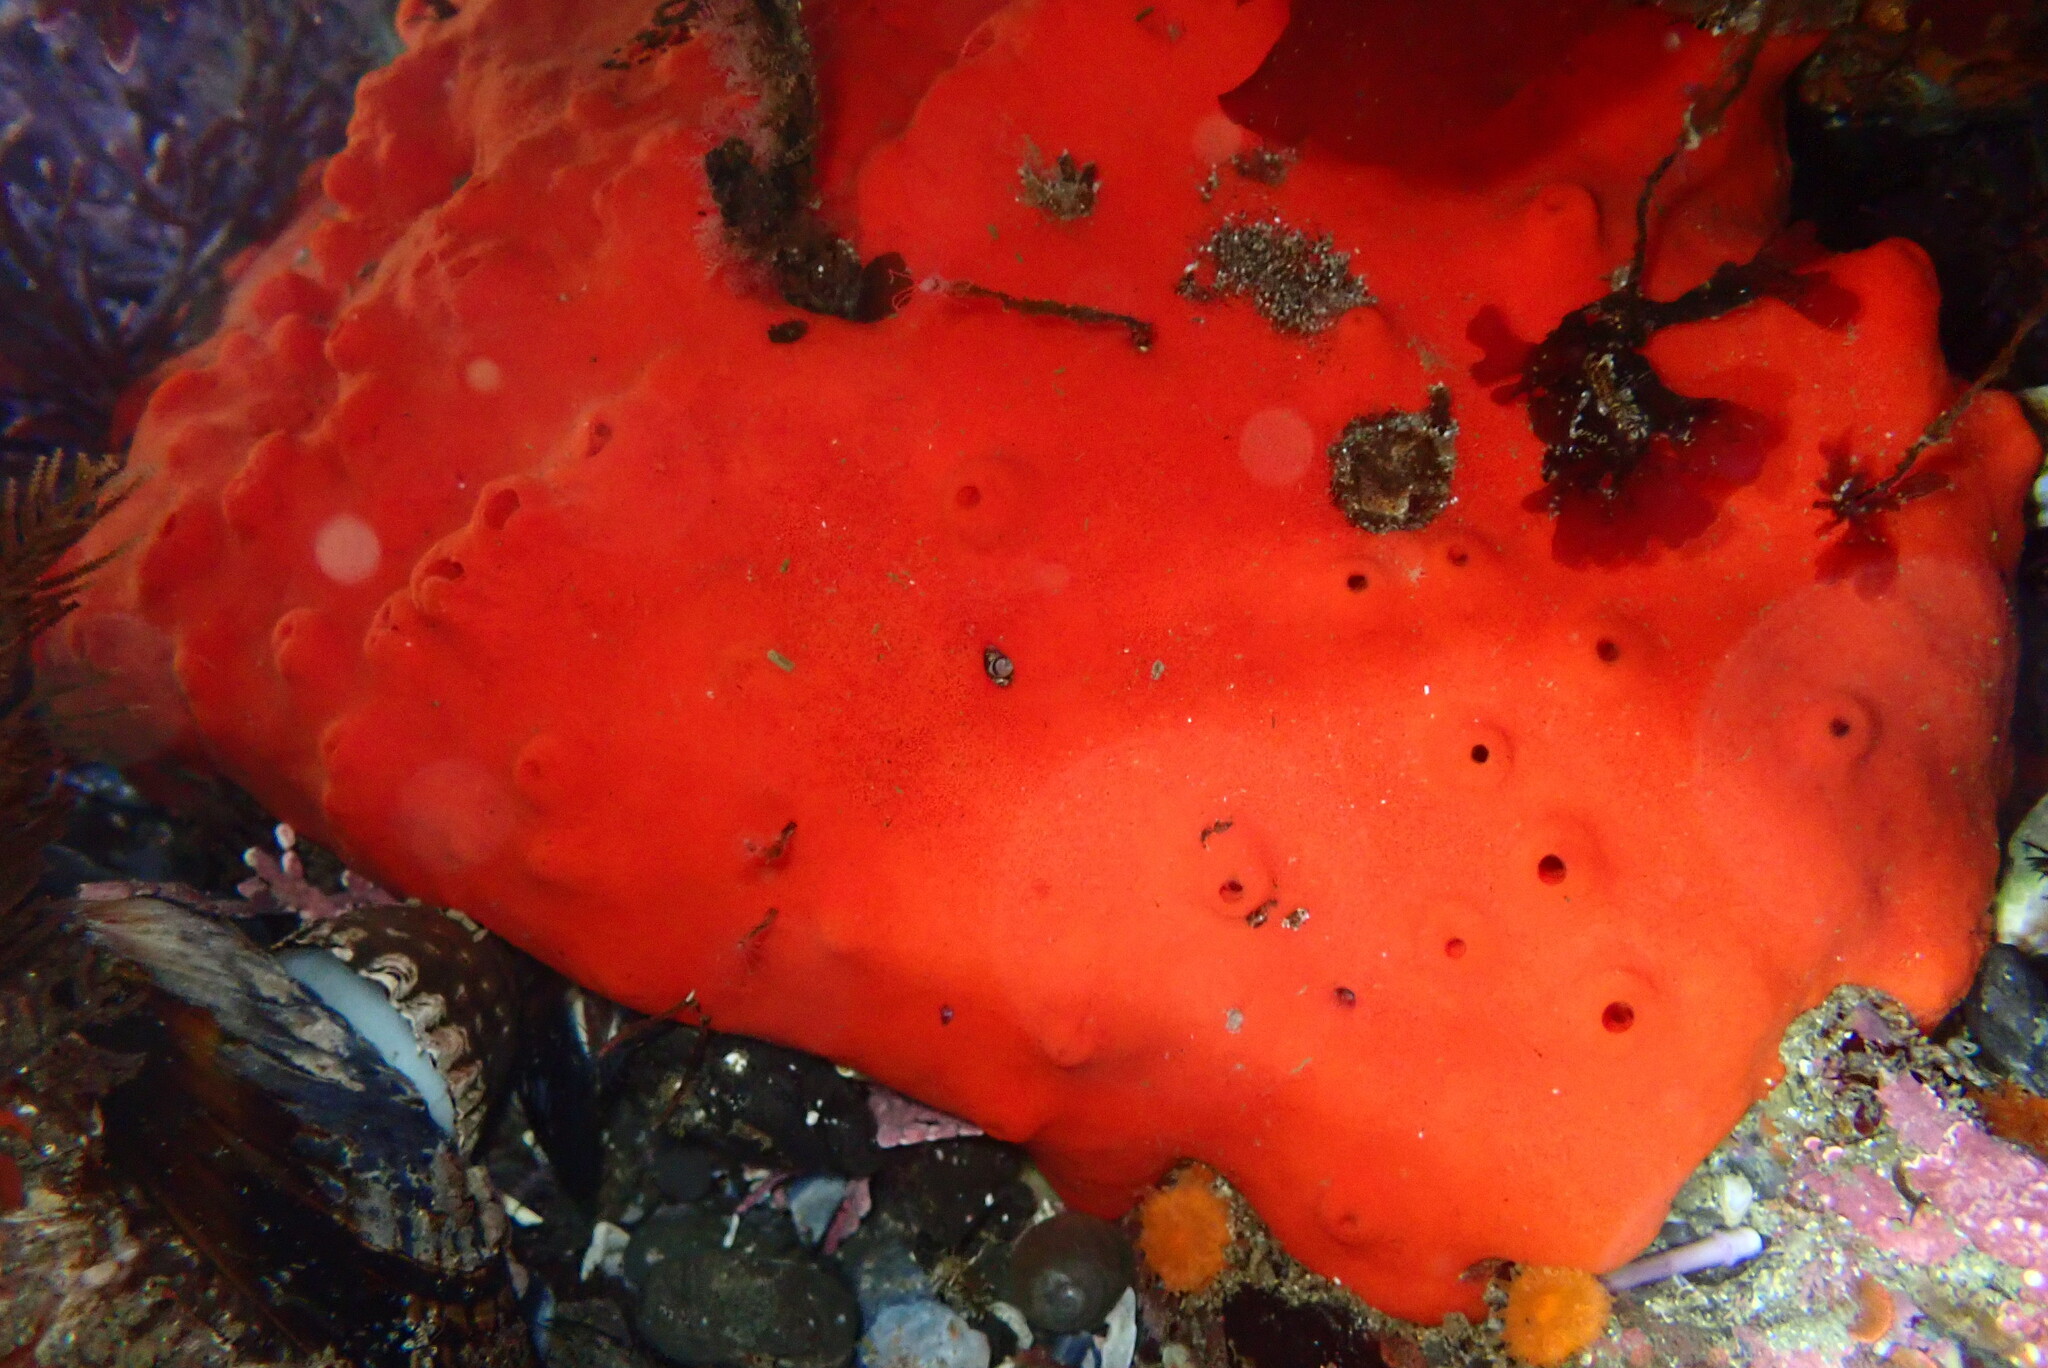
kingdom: Animalia
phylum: Porifera
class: Demospongiae
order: Poecilosclerida
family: Acarnidae
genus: Acarnus
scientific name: Acarnus erithacus
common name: Red volcano horny sponge
